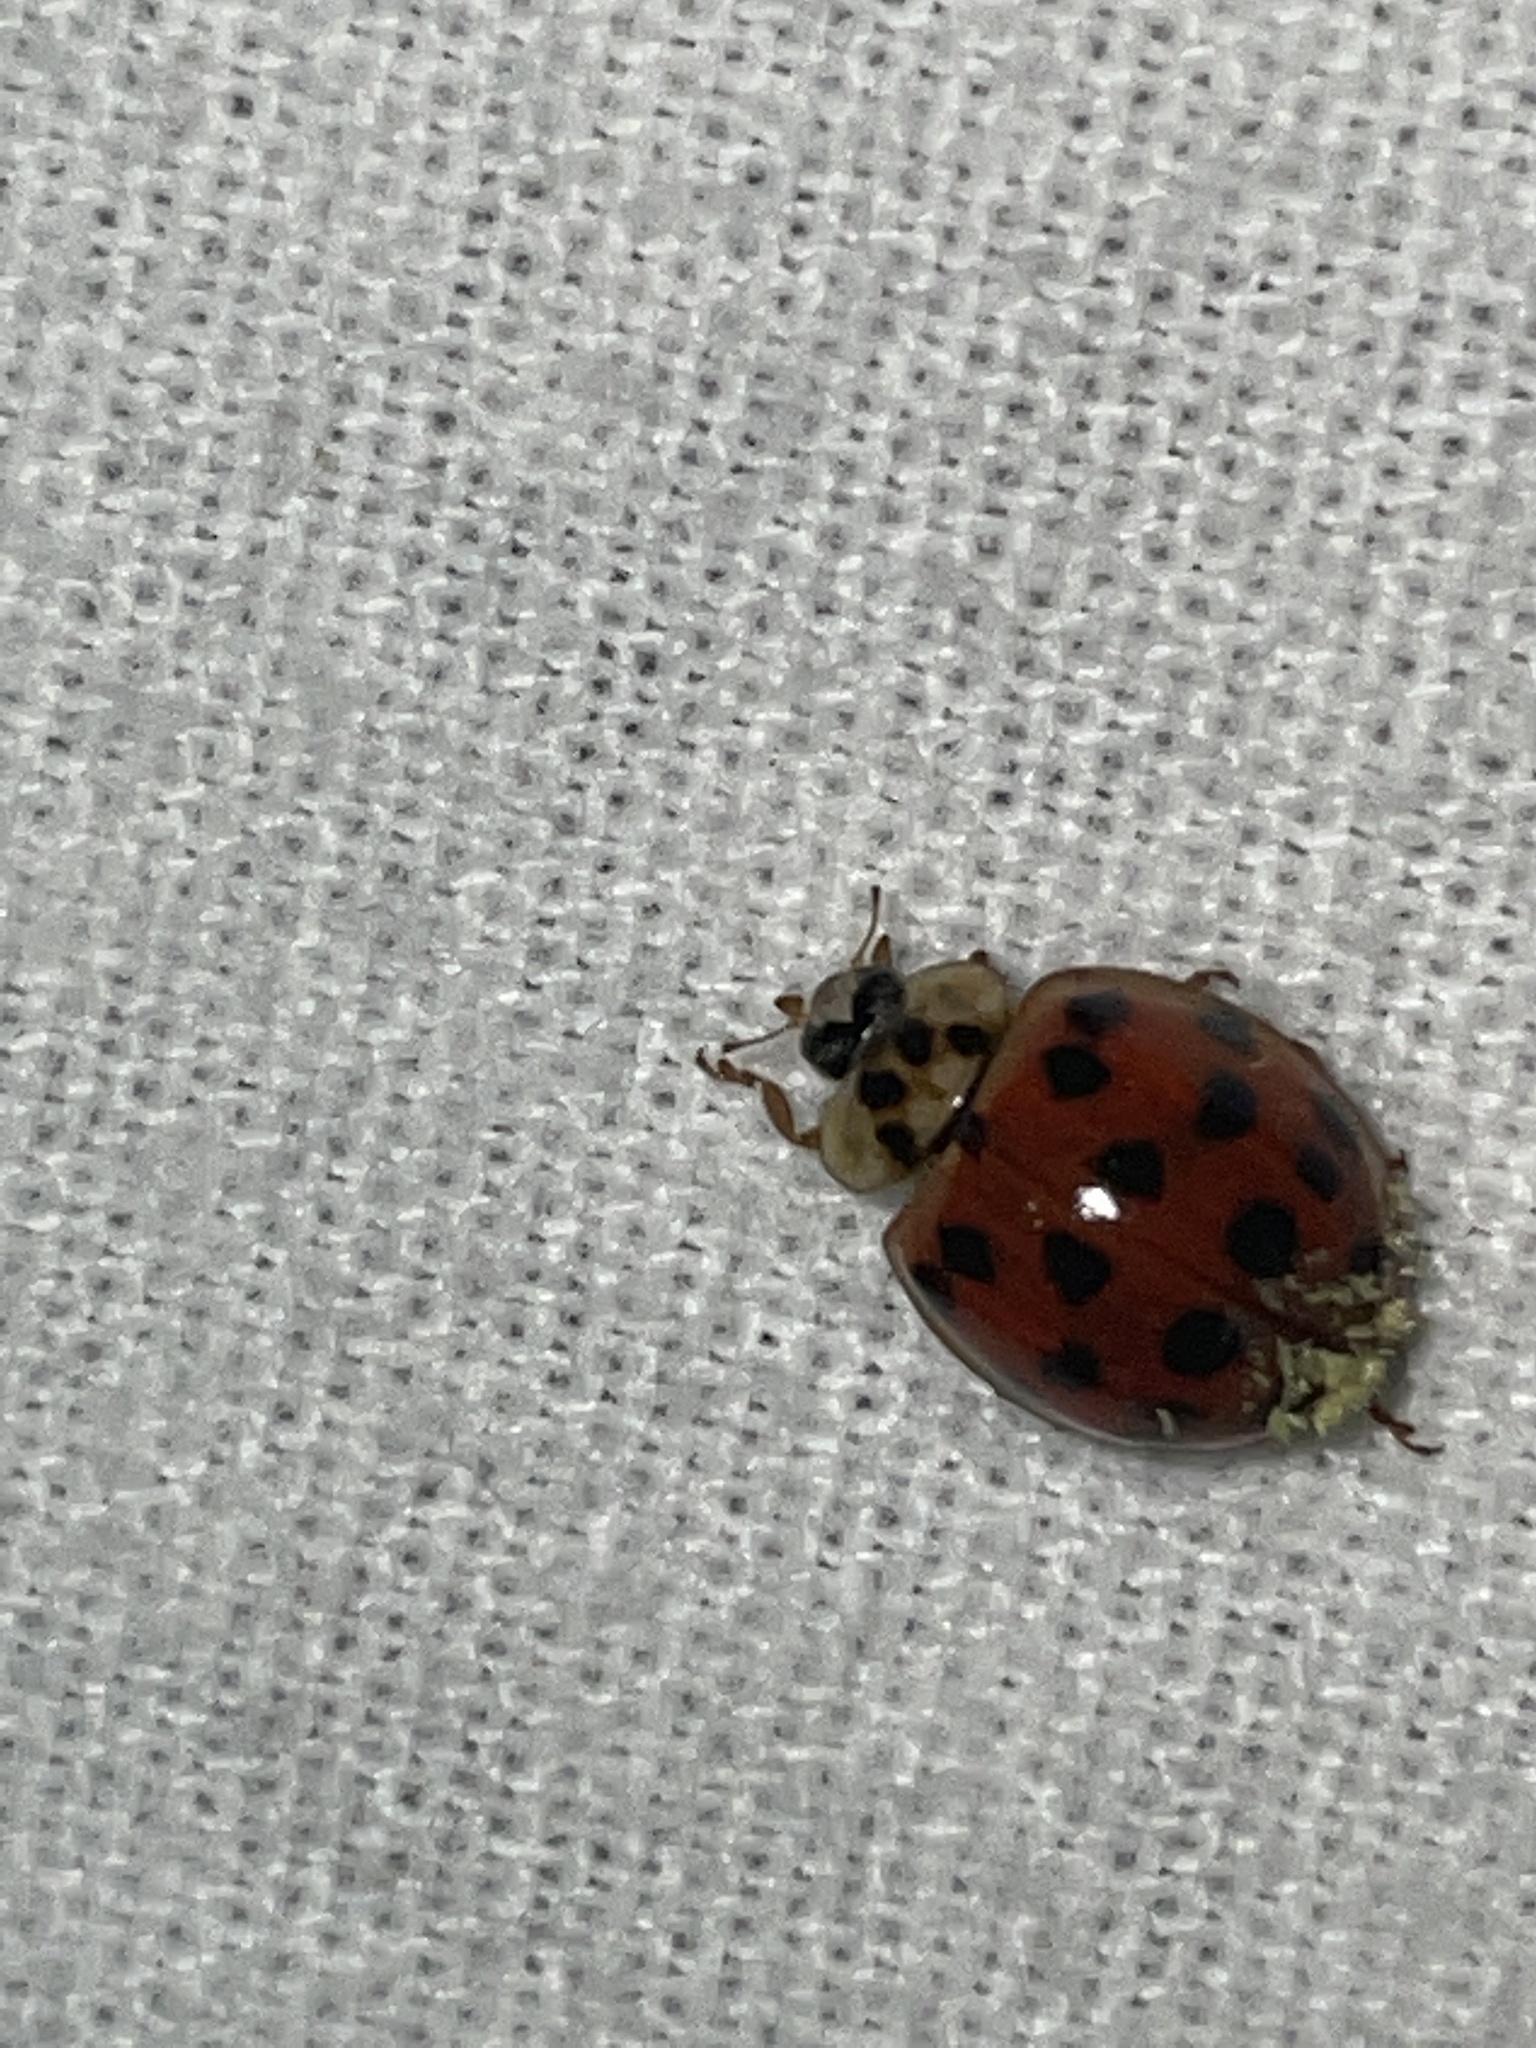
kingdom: Fungi
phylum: Ascomycota
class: Laboulbeniomycetes
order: Laboulbeniales
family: Laboulbeniaceae
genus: Hesperomyces
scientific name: Hesperomyces harmoniae
